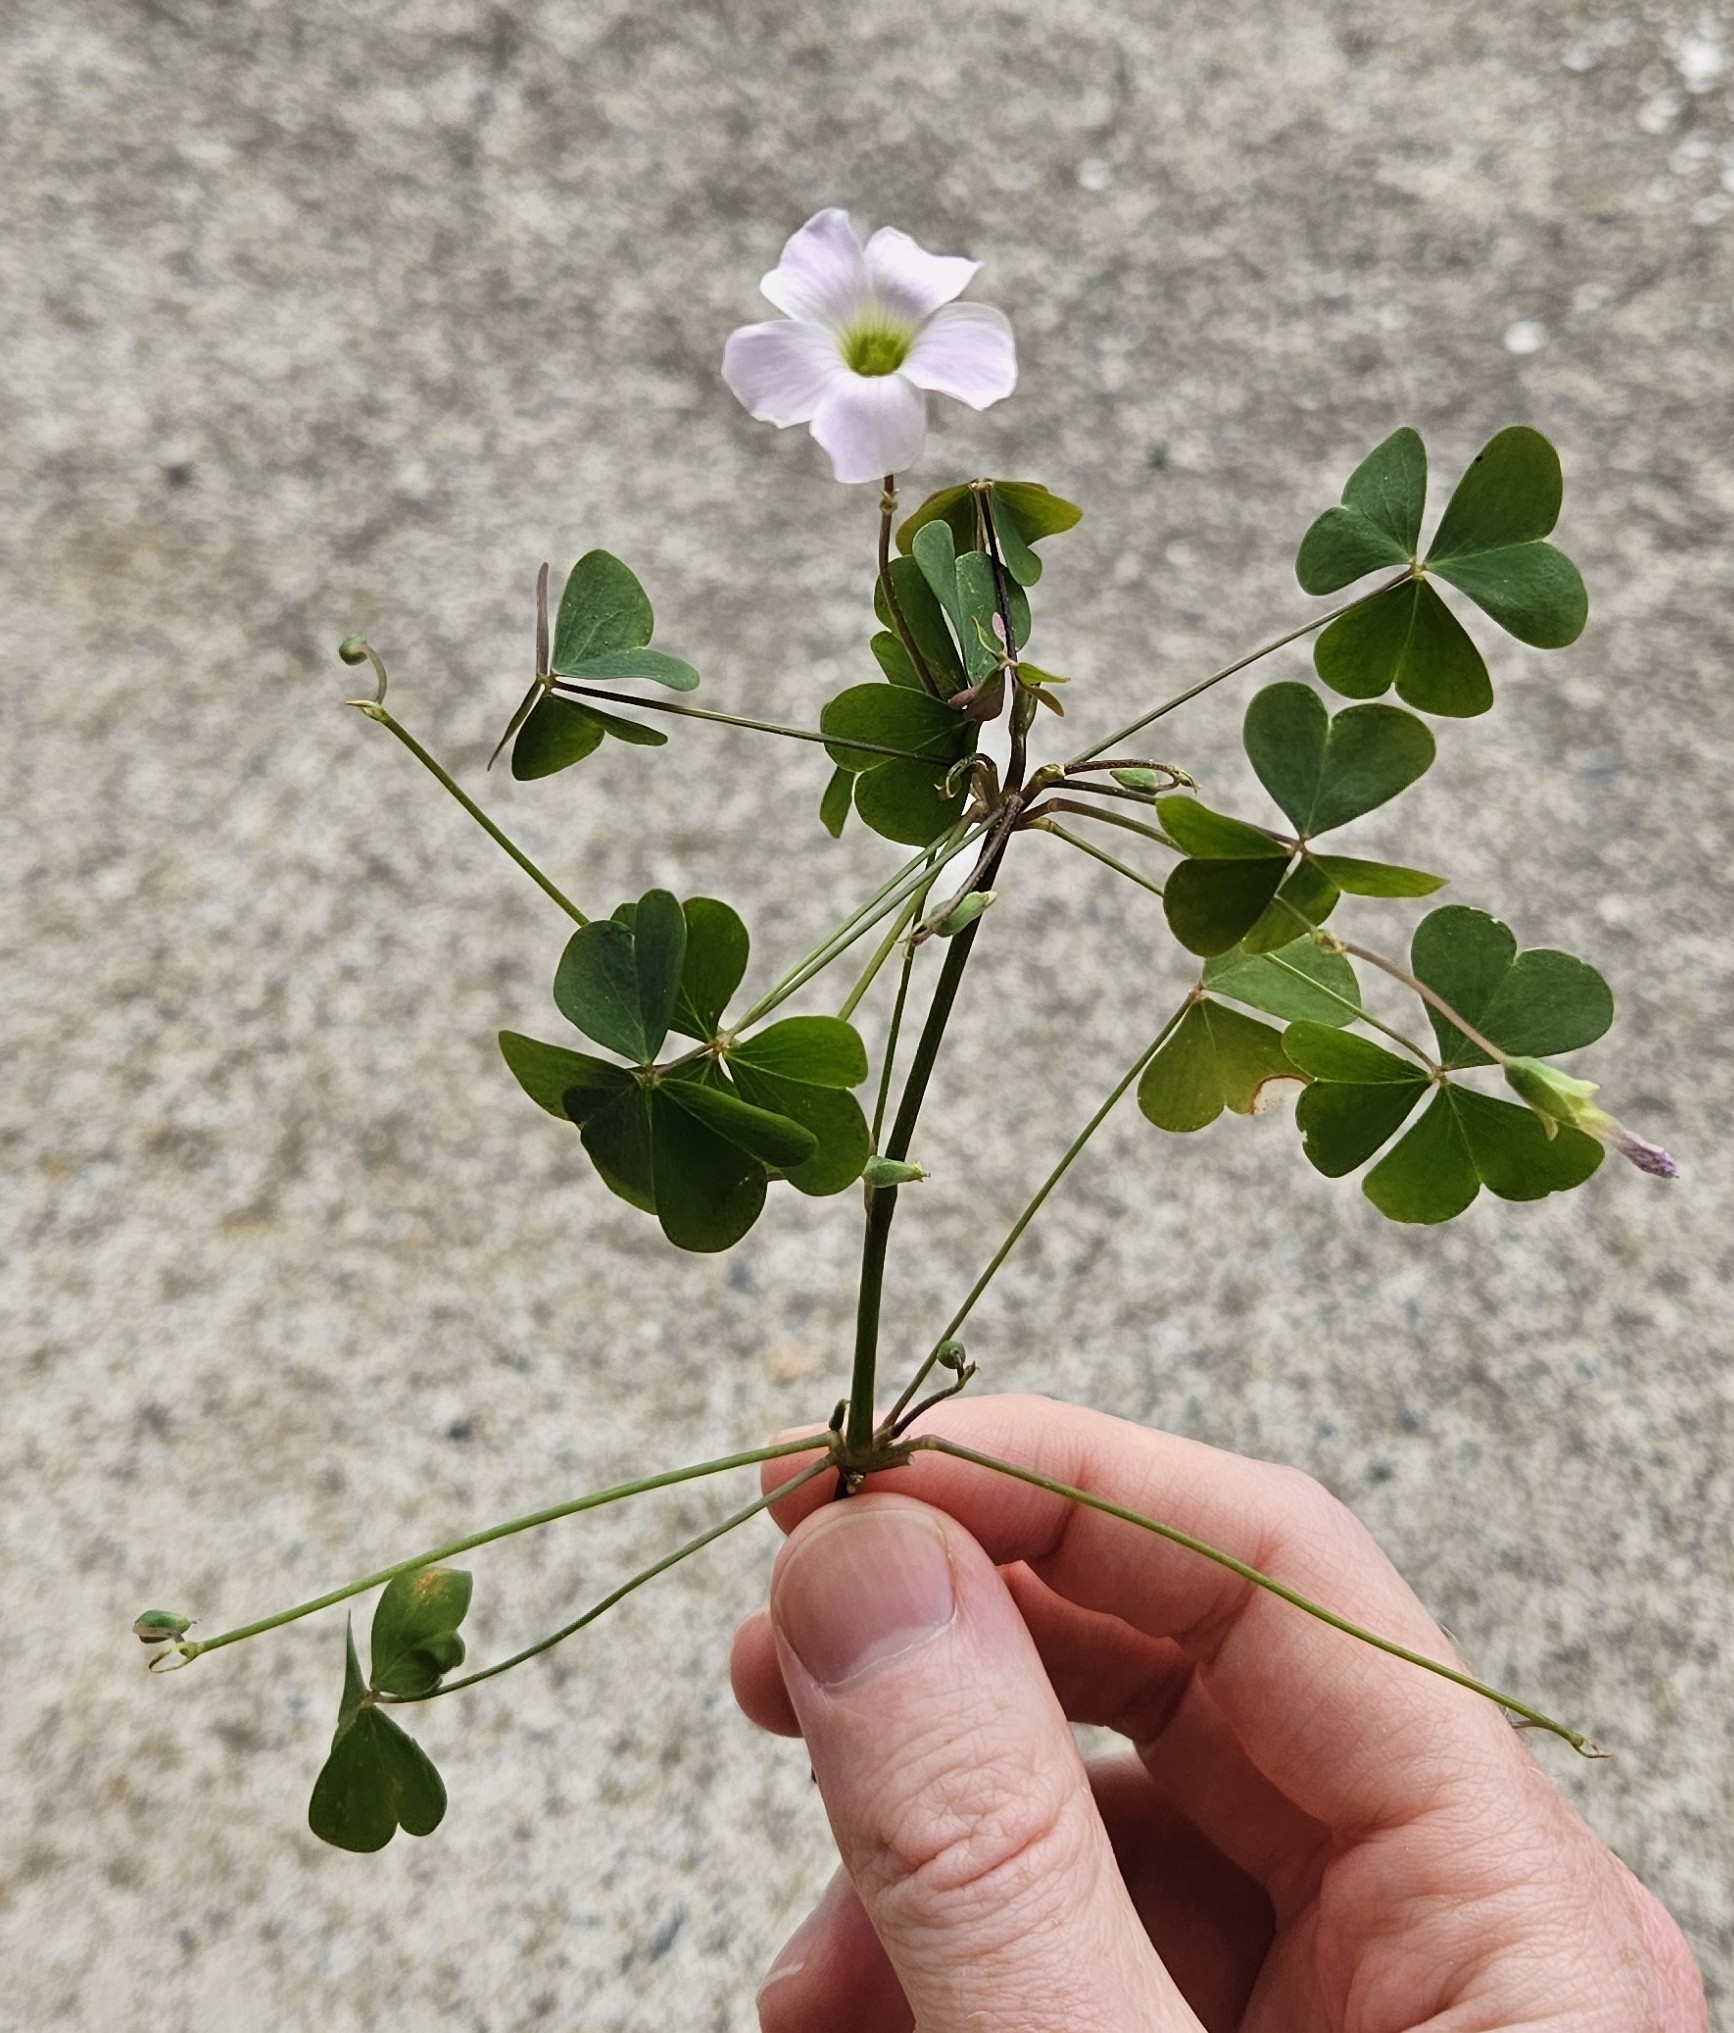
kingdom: Plantae
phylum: Tracheophyta
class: Magnoliopsida
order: Oxalidales
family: Oxalidaceae
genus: Oxalis
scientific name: Oxalis incarnata
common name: Pale pink-sorrel
